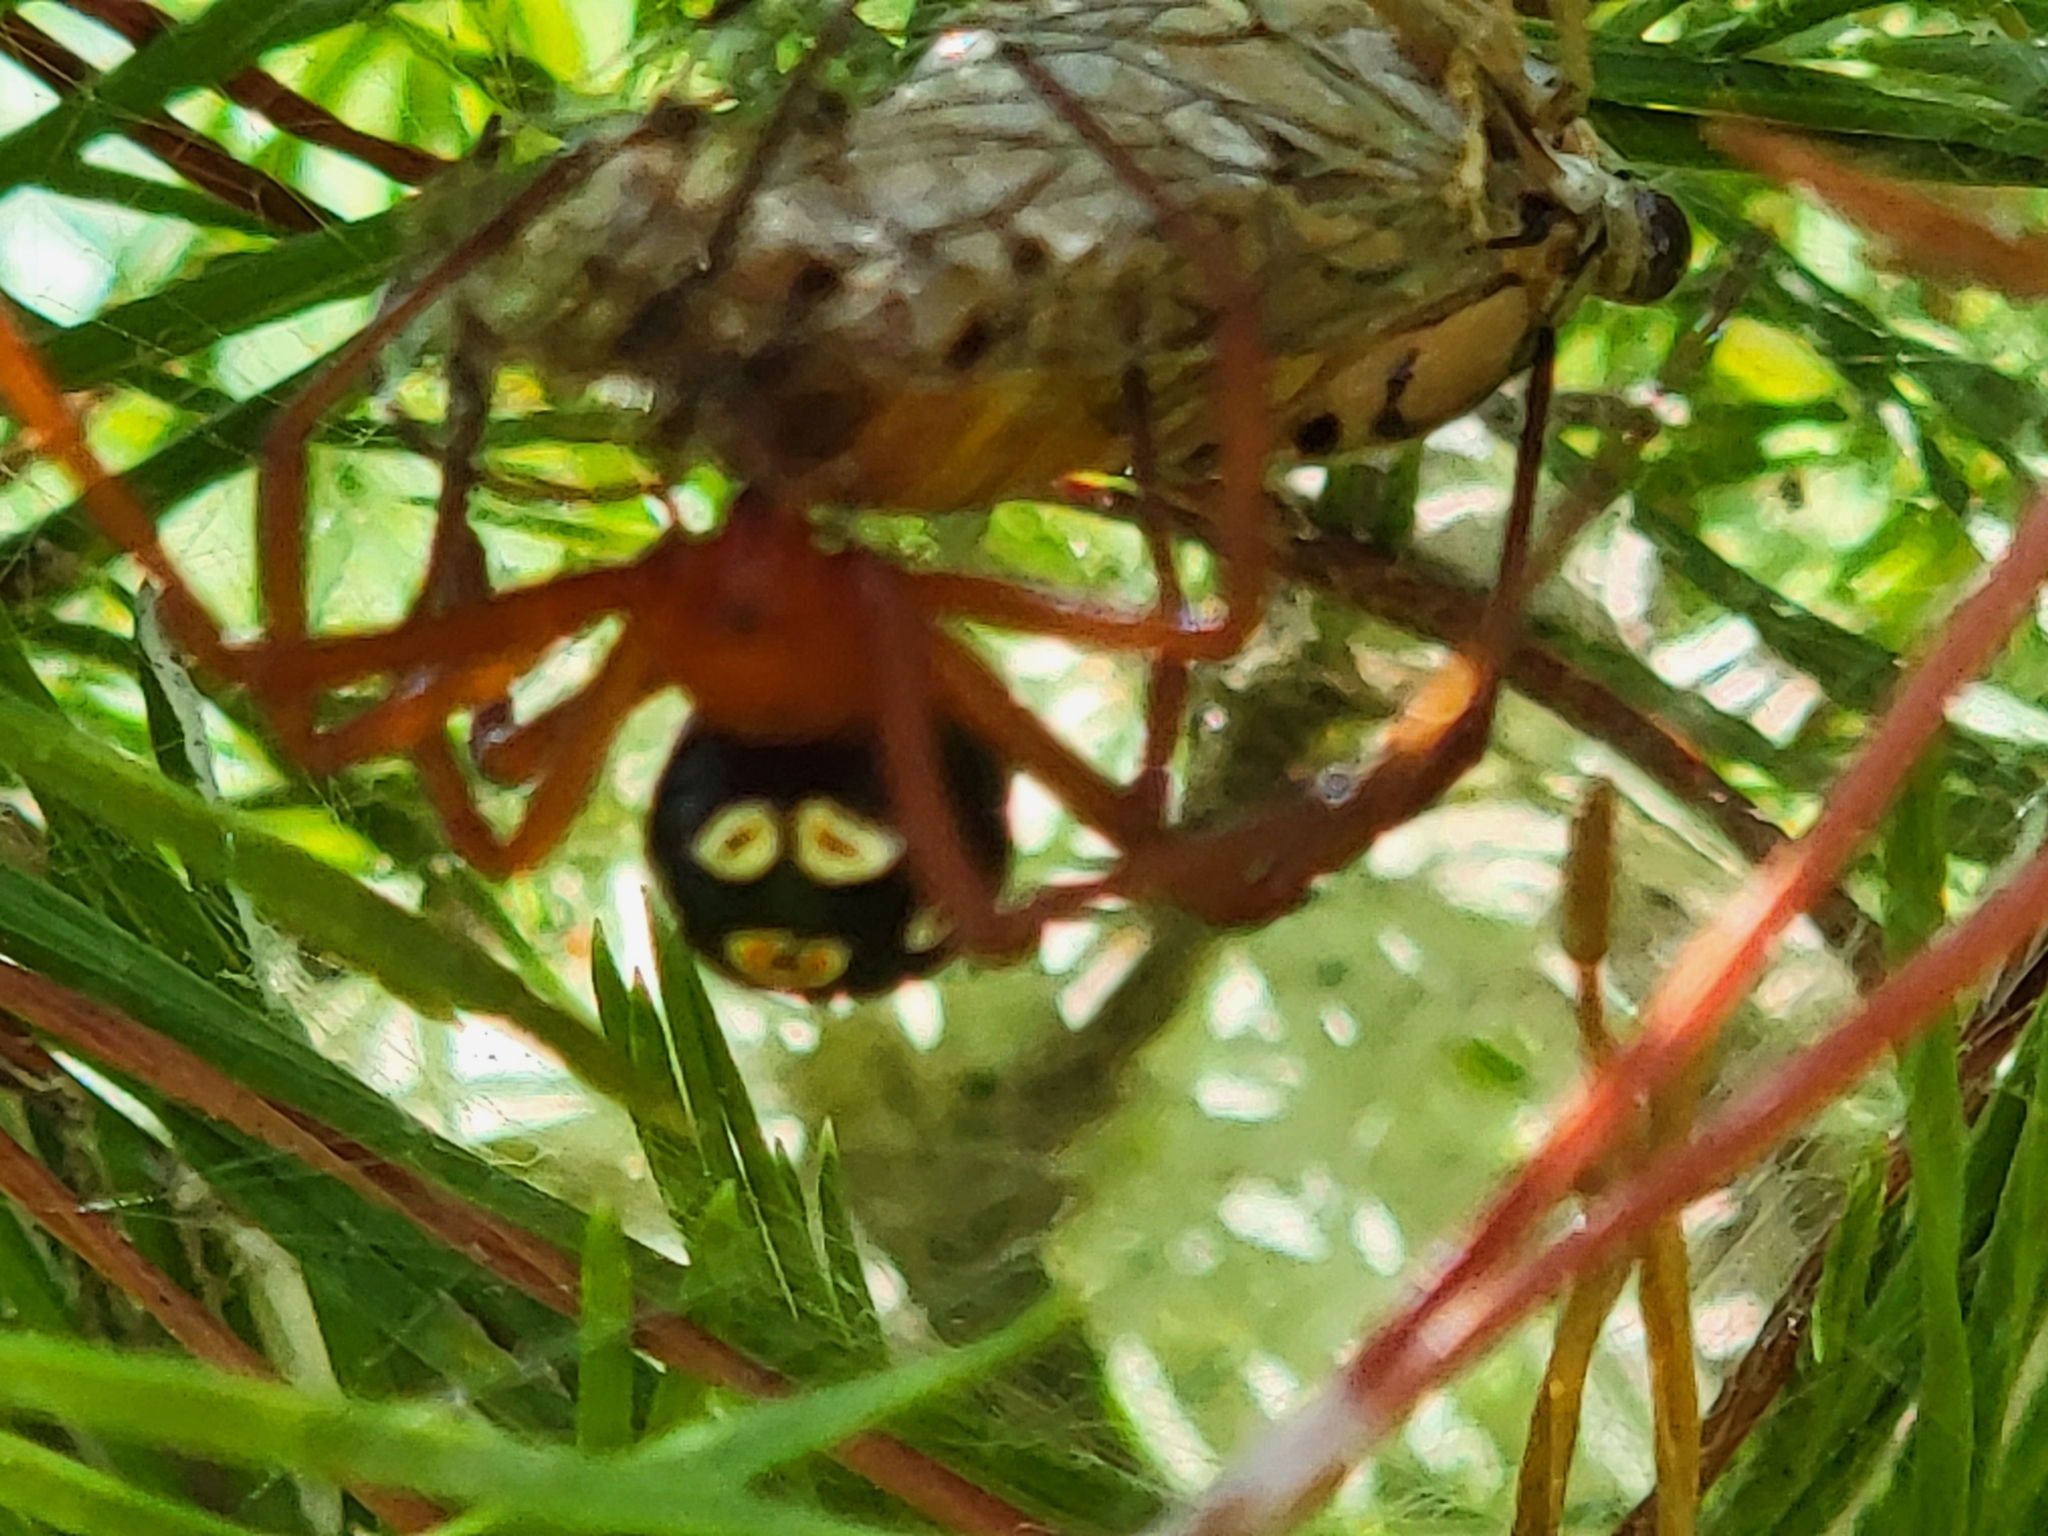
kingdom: Animalia
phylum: Arthropoda
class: Arachnida
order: Araneae
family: Theridiidae
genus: Latrodectus
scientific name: Latrodectus bishopi
